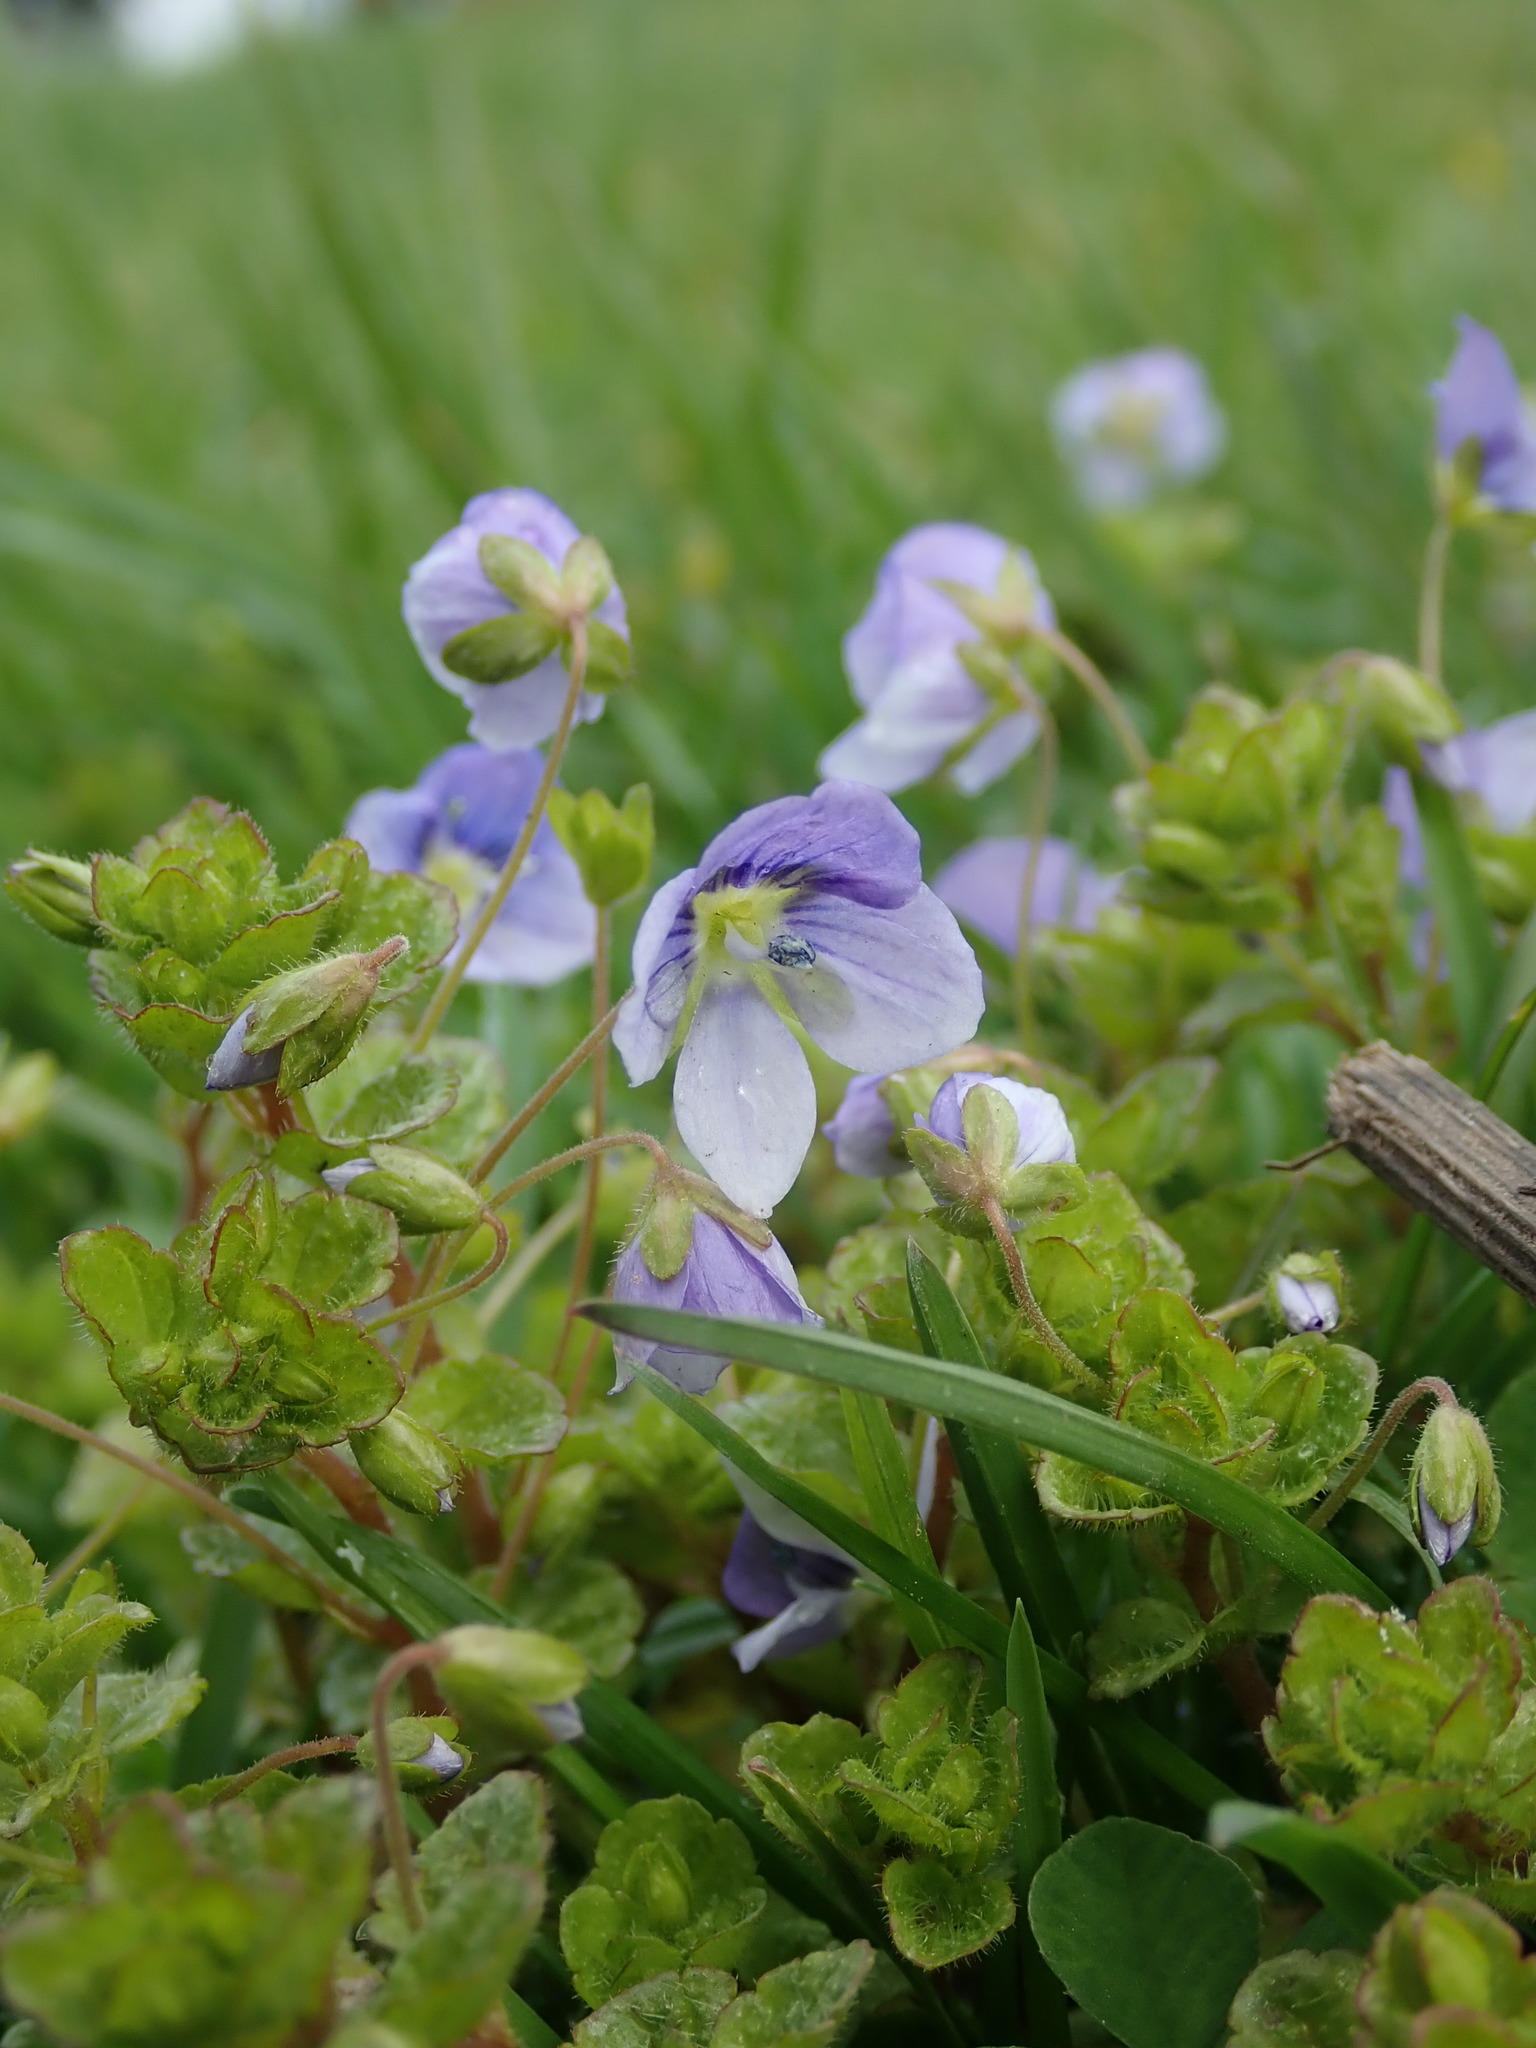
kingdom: Plantae
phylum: Tracheophyta
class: Magnoliopsida
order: Lamiales
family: Plantaginaceae
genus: Veronica
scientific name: Veronica filiformis
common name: Slender speedwell
